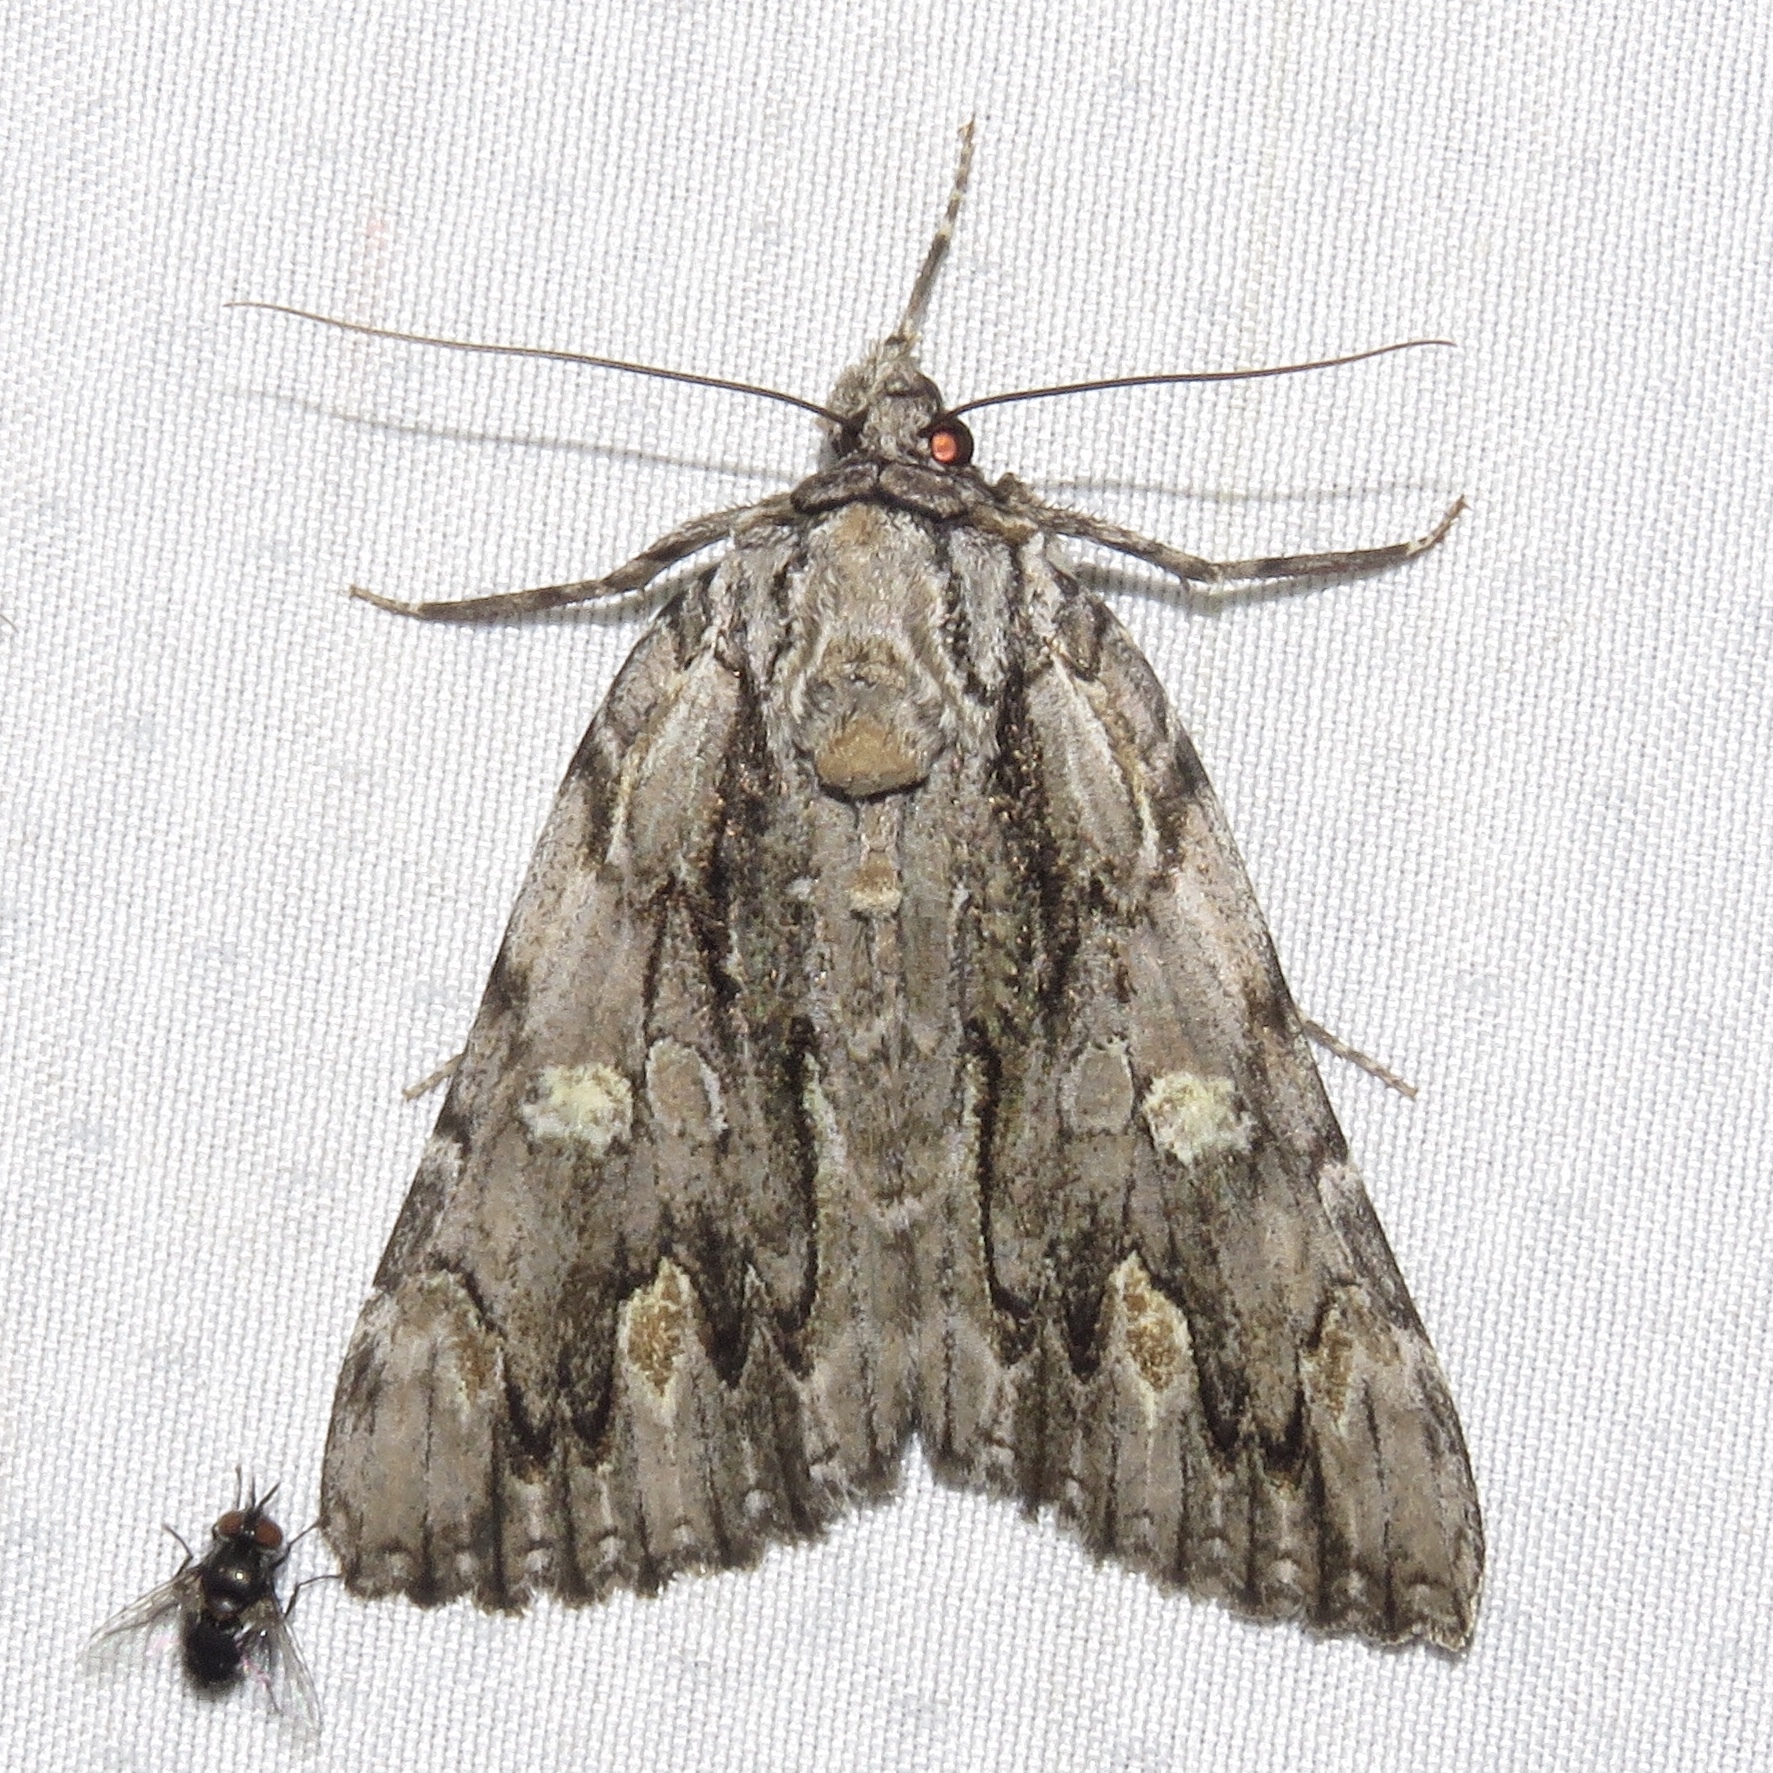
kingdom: Animalia
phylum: Arthropoda
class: Insecta
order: Lepidoptera
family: Erebidae
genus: Catocala
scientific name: Catocala coccinata
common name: Scarlet underwing
